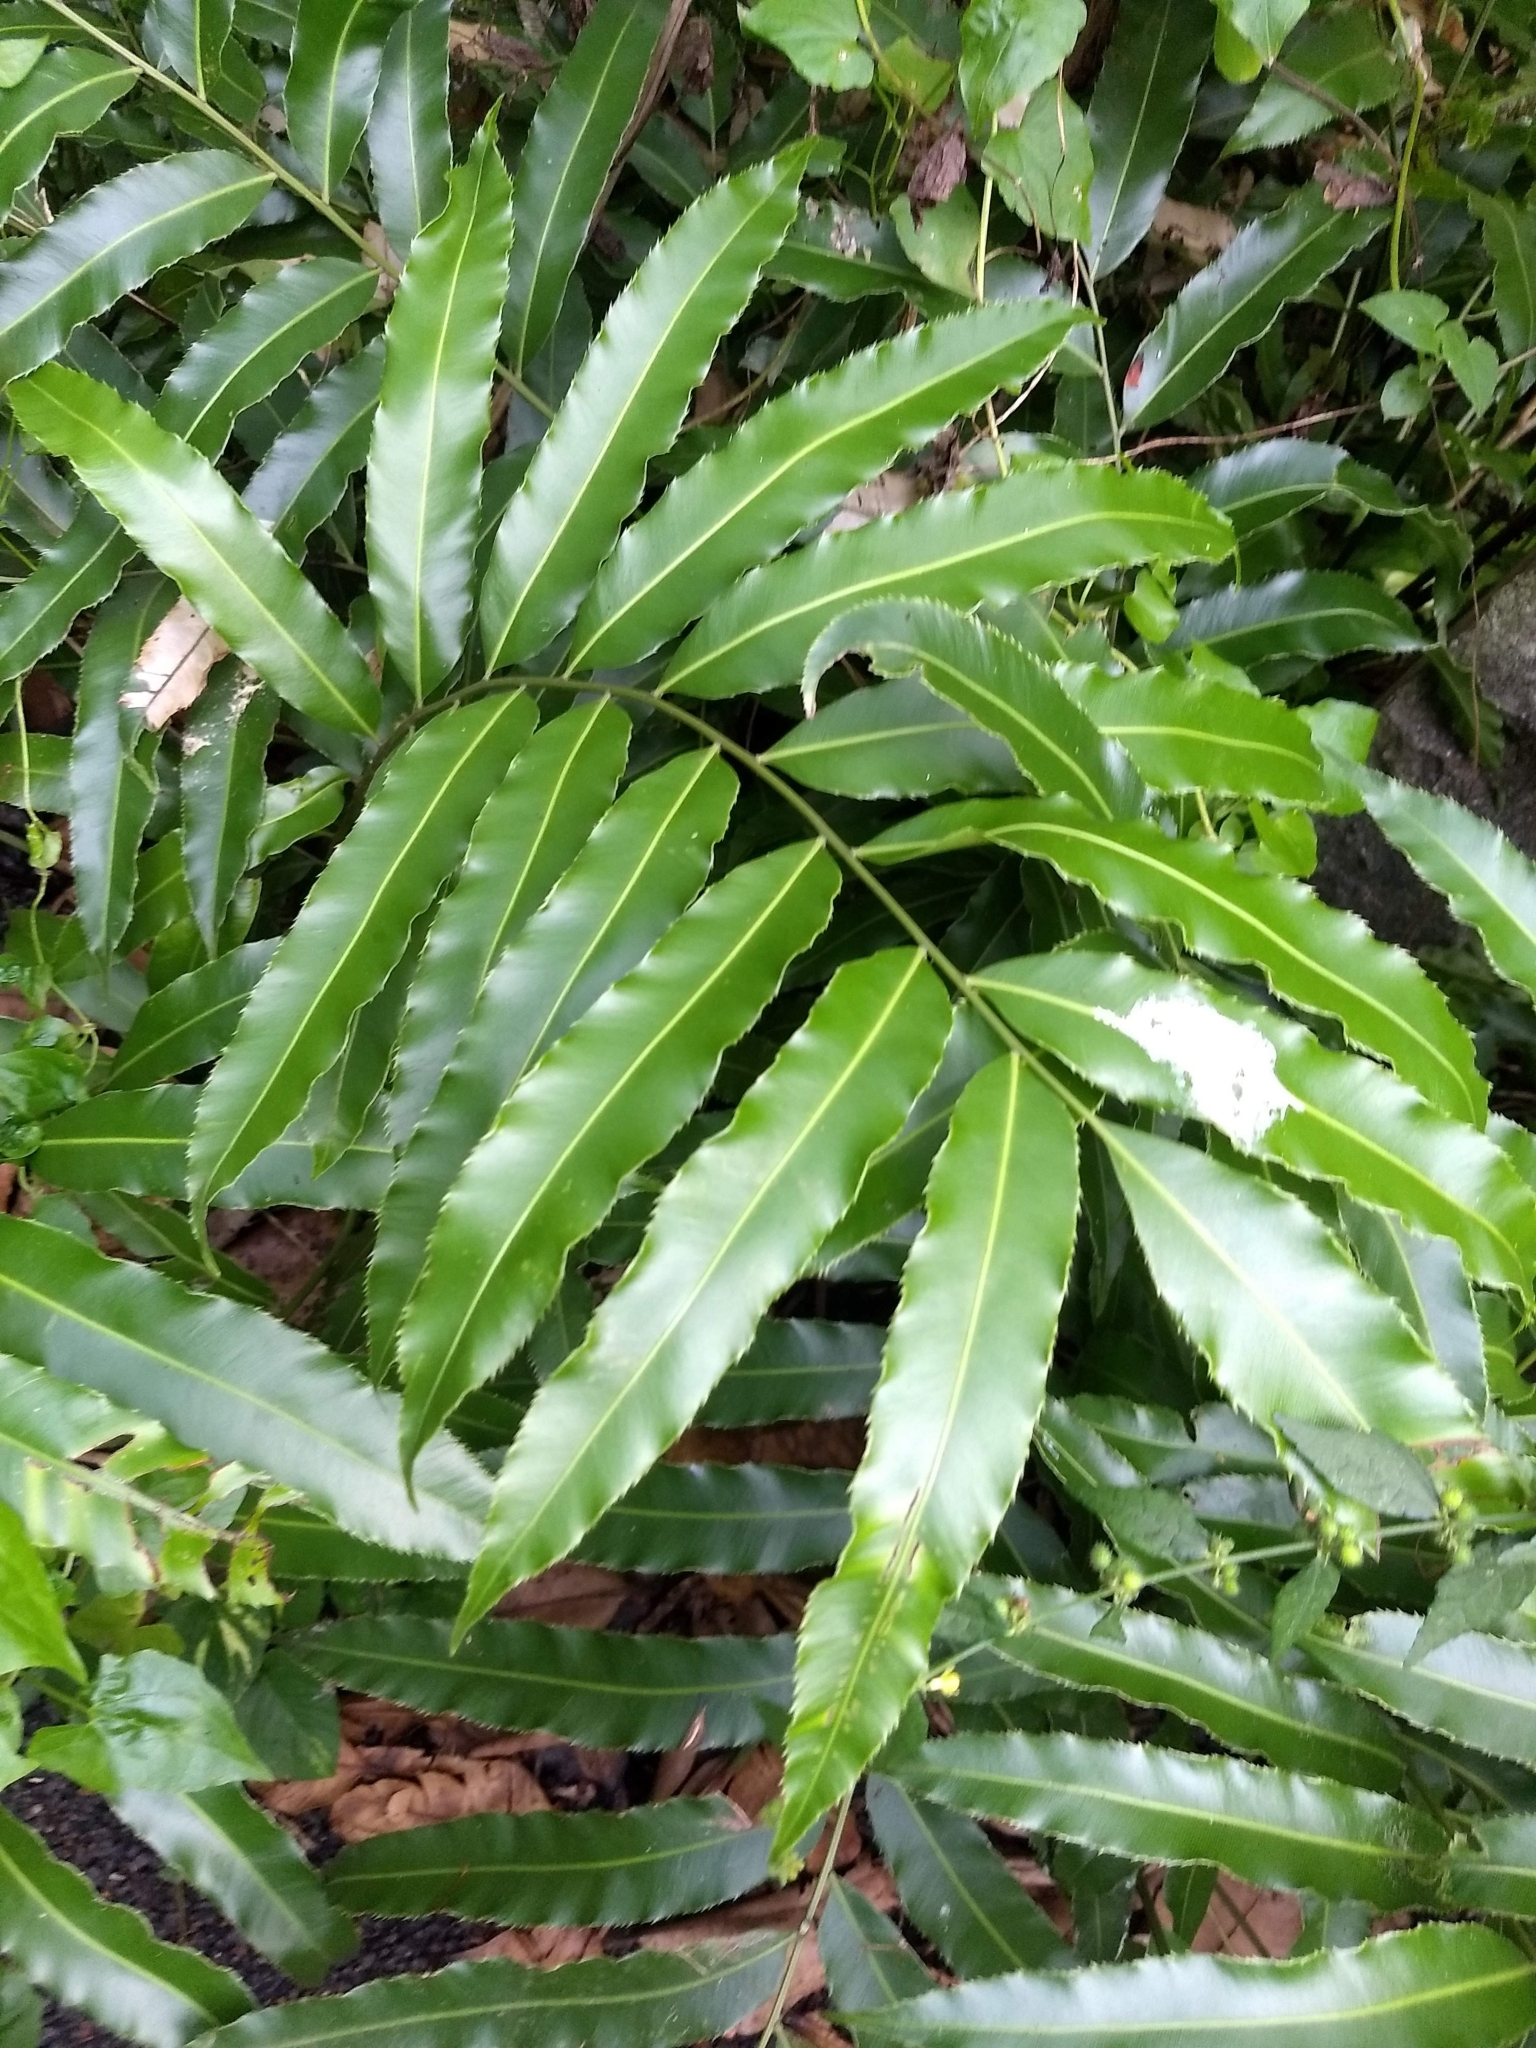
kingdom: Plantae
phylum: Tracheophyta
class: Magnoliopsida
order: Magnoliales
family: Annonaceae
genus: Polyalthia
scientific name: Polyalthia longifolia
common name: Cemetery-tree
